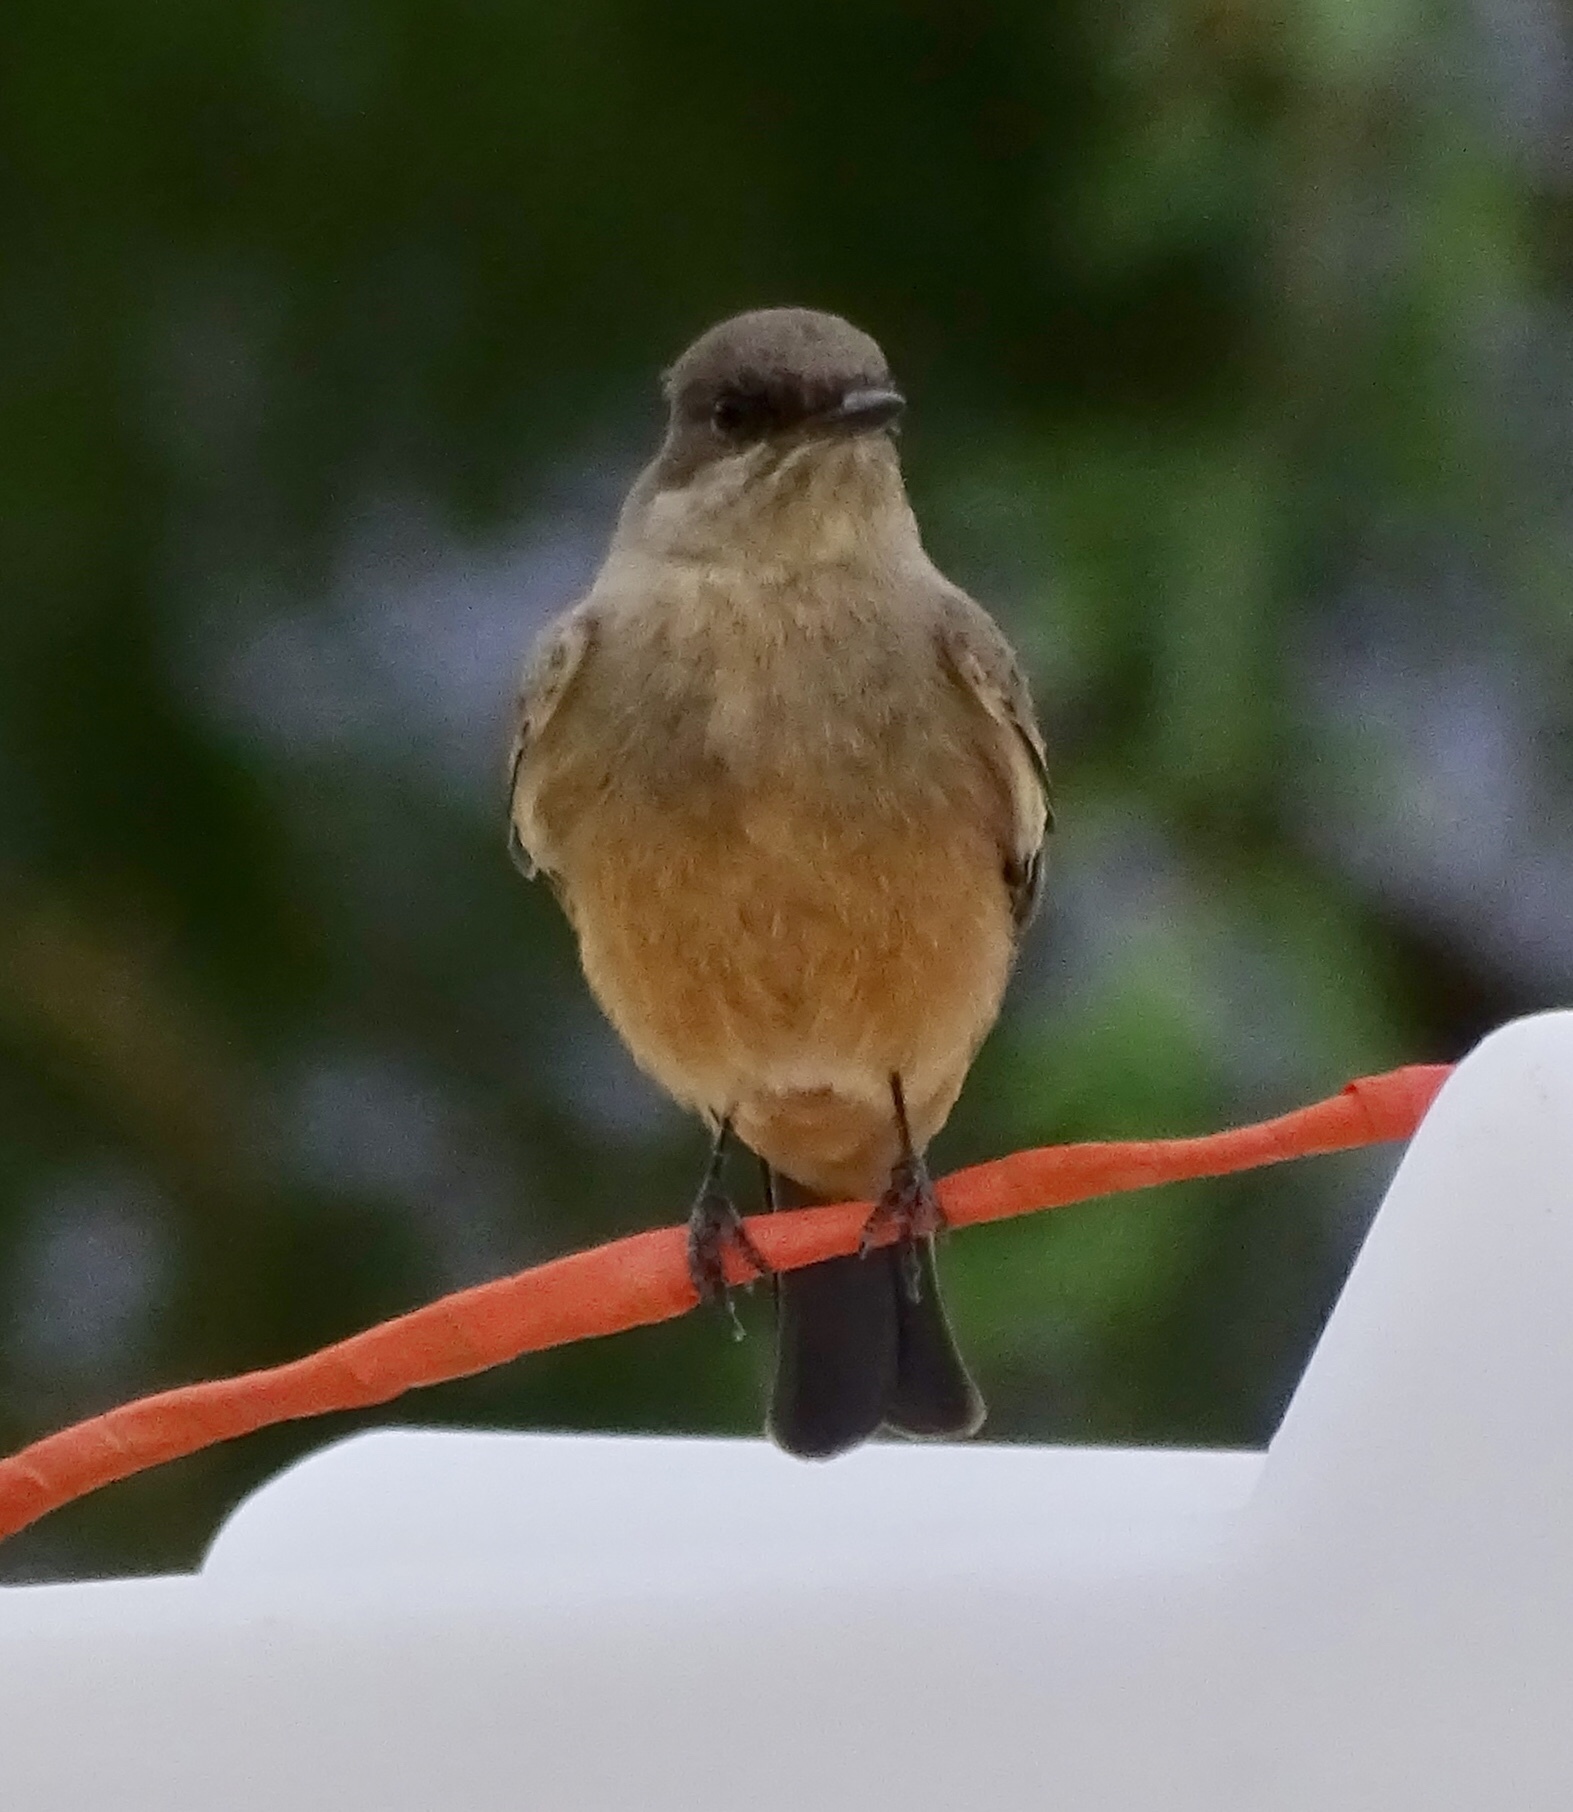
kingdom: Animalia
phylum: Chordata
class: Aves
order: Passeriformes
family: Tyrannidae
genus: Sayornis
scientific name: Sayornis saya
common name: Say's phoebe
